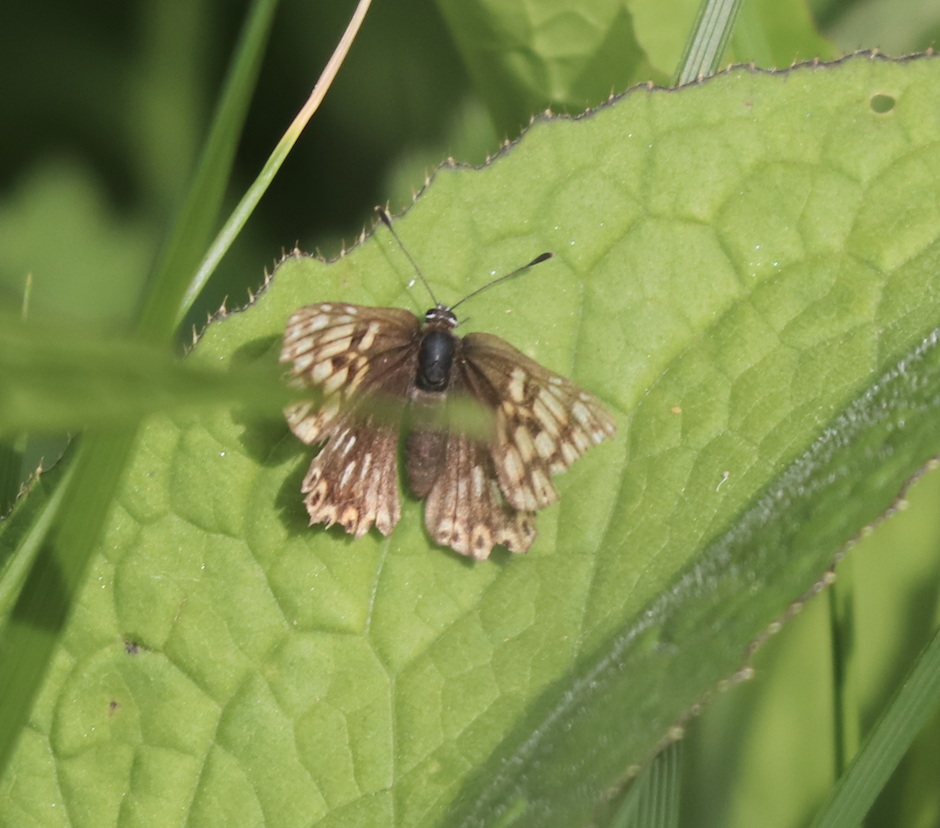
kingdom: Animalia
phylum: Arthropoda
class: Insecta
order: Lepidoptera
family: Riodinidae
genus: Hamearis
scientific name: Hamearis lucina
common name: Duke of burgundy fritillary
